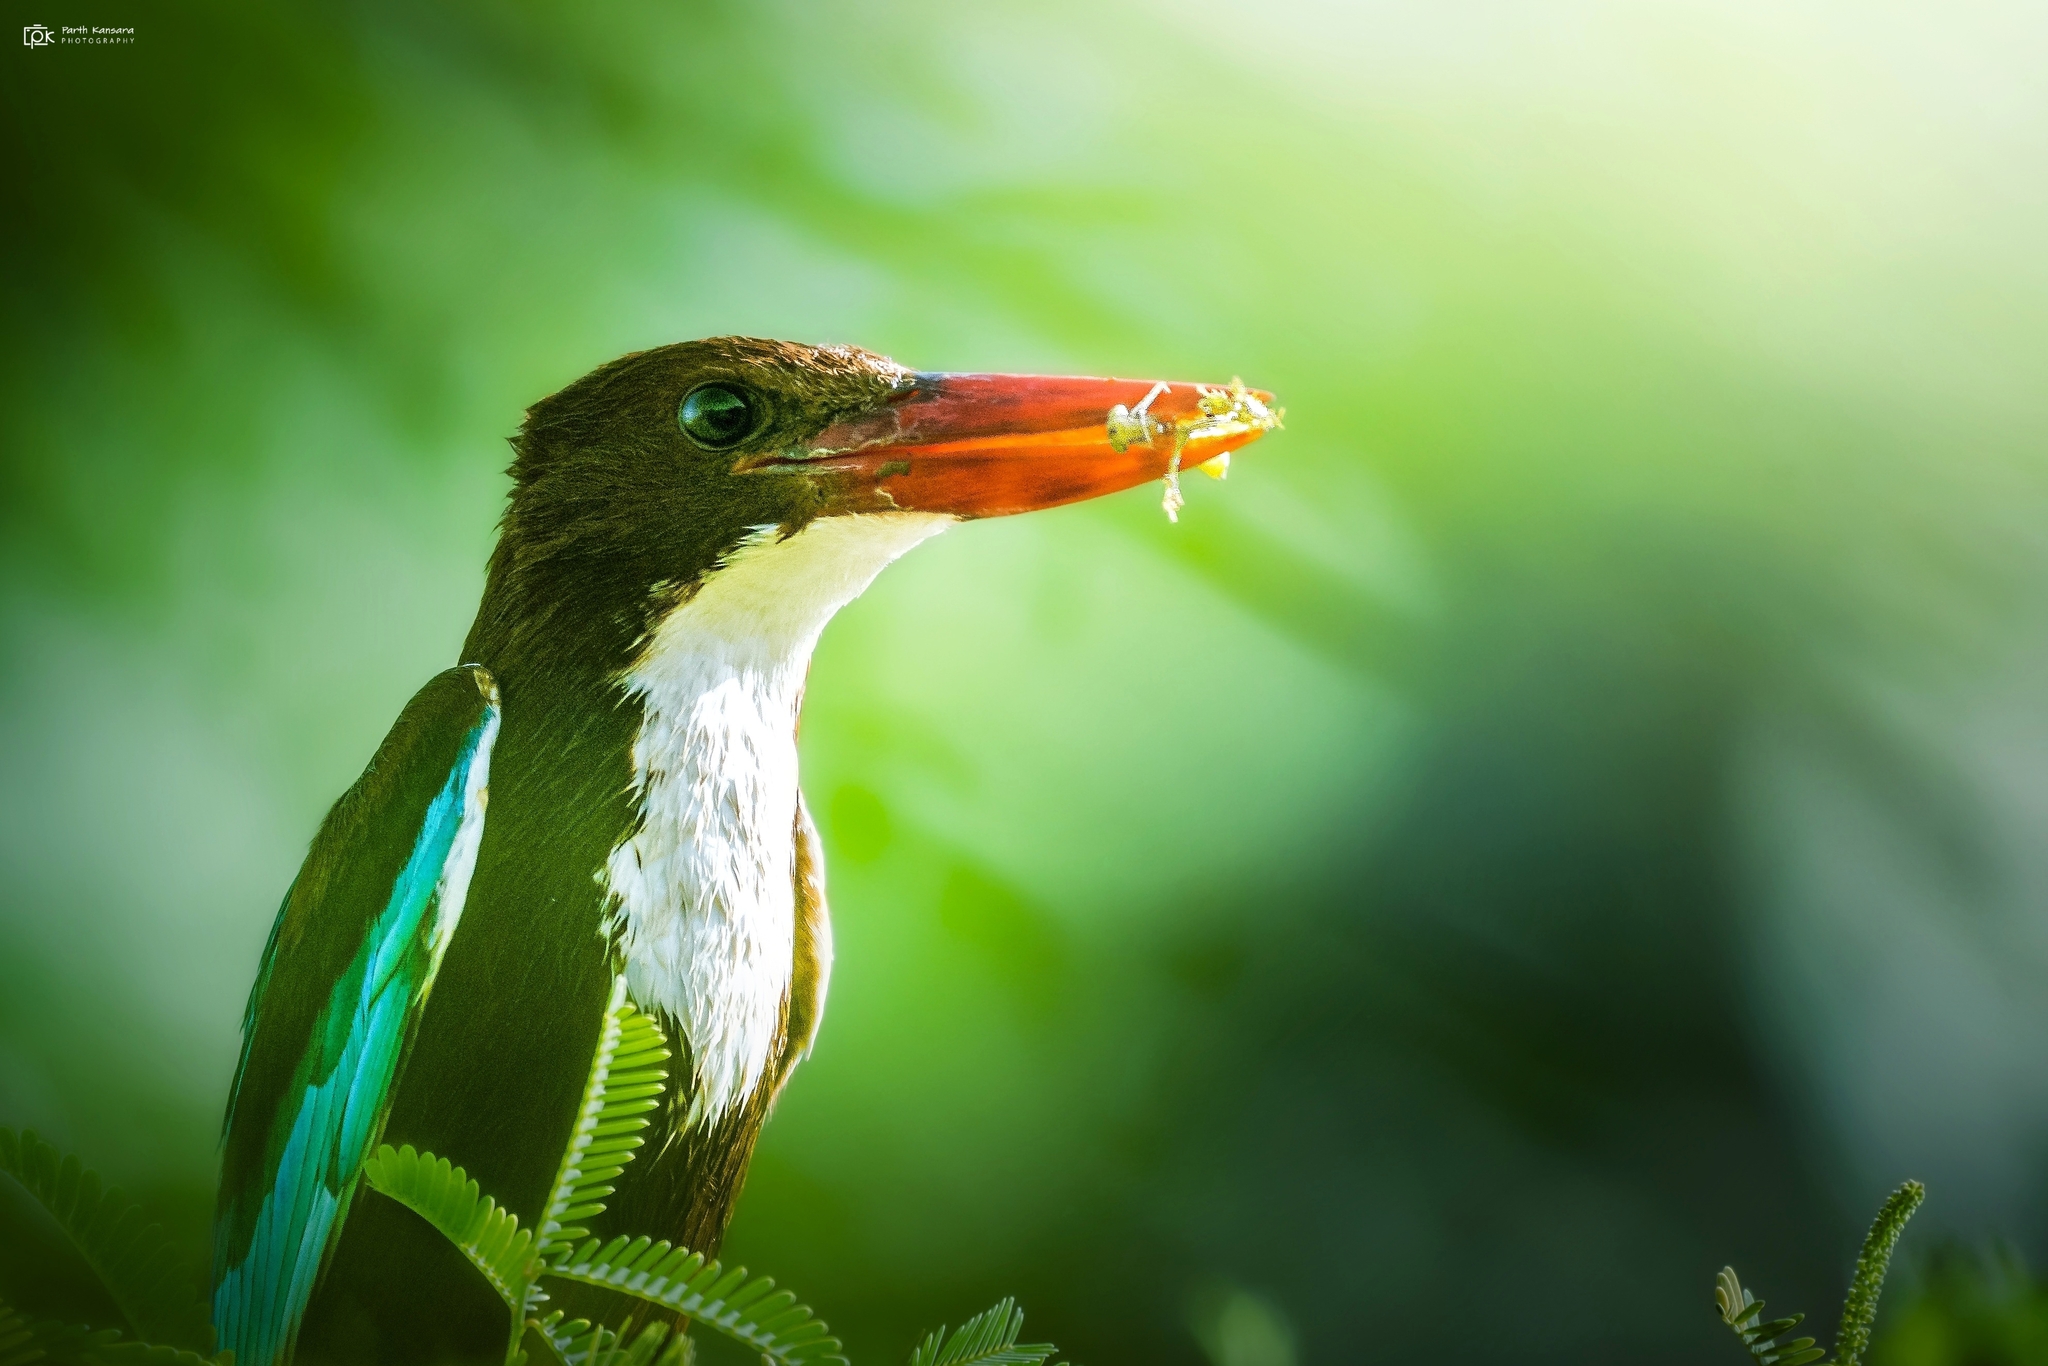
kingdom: Animalia
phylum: Chordata
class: Aves
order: Coraciiformes
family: Alcedinidae
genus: Halcyon
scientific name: Halcyon smyrnensis
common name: White-throated kingfisher
